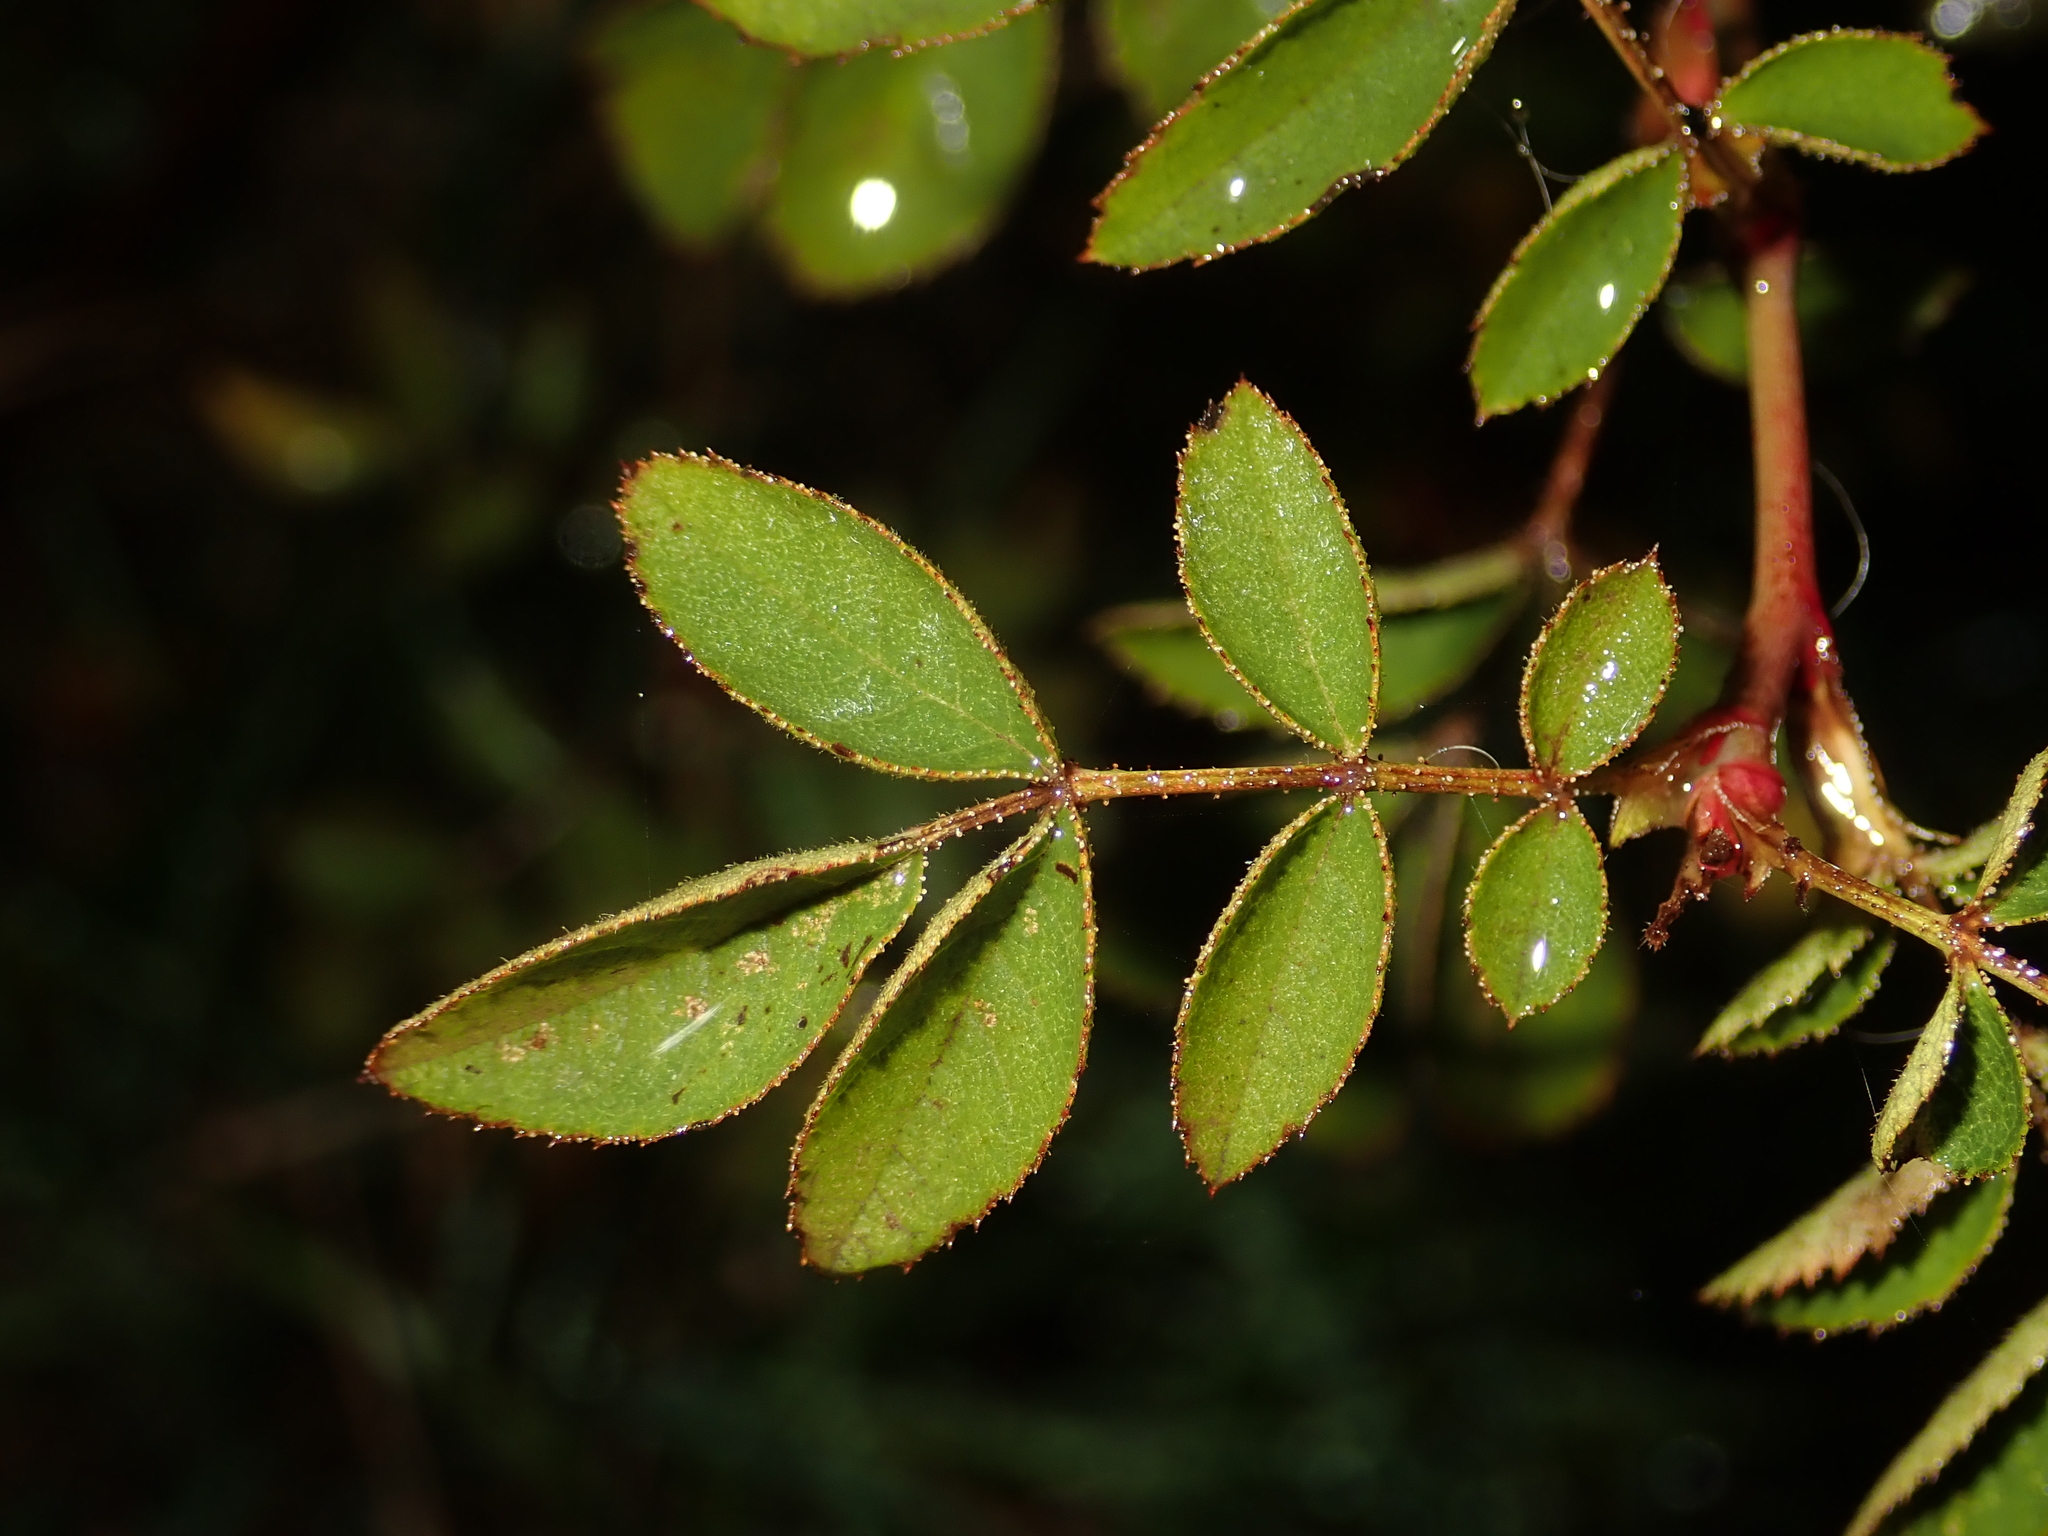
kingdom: Plantae
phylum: Tracheophyta
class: Magnoliopsida
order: Rosales
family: Rosaceae
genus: Rosa
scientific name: Rosa rubiginosa
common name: Sweet-briar
